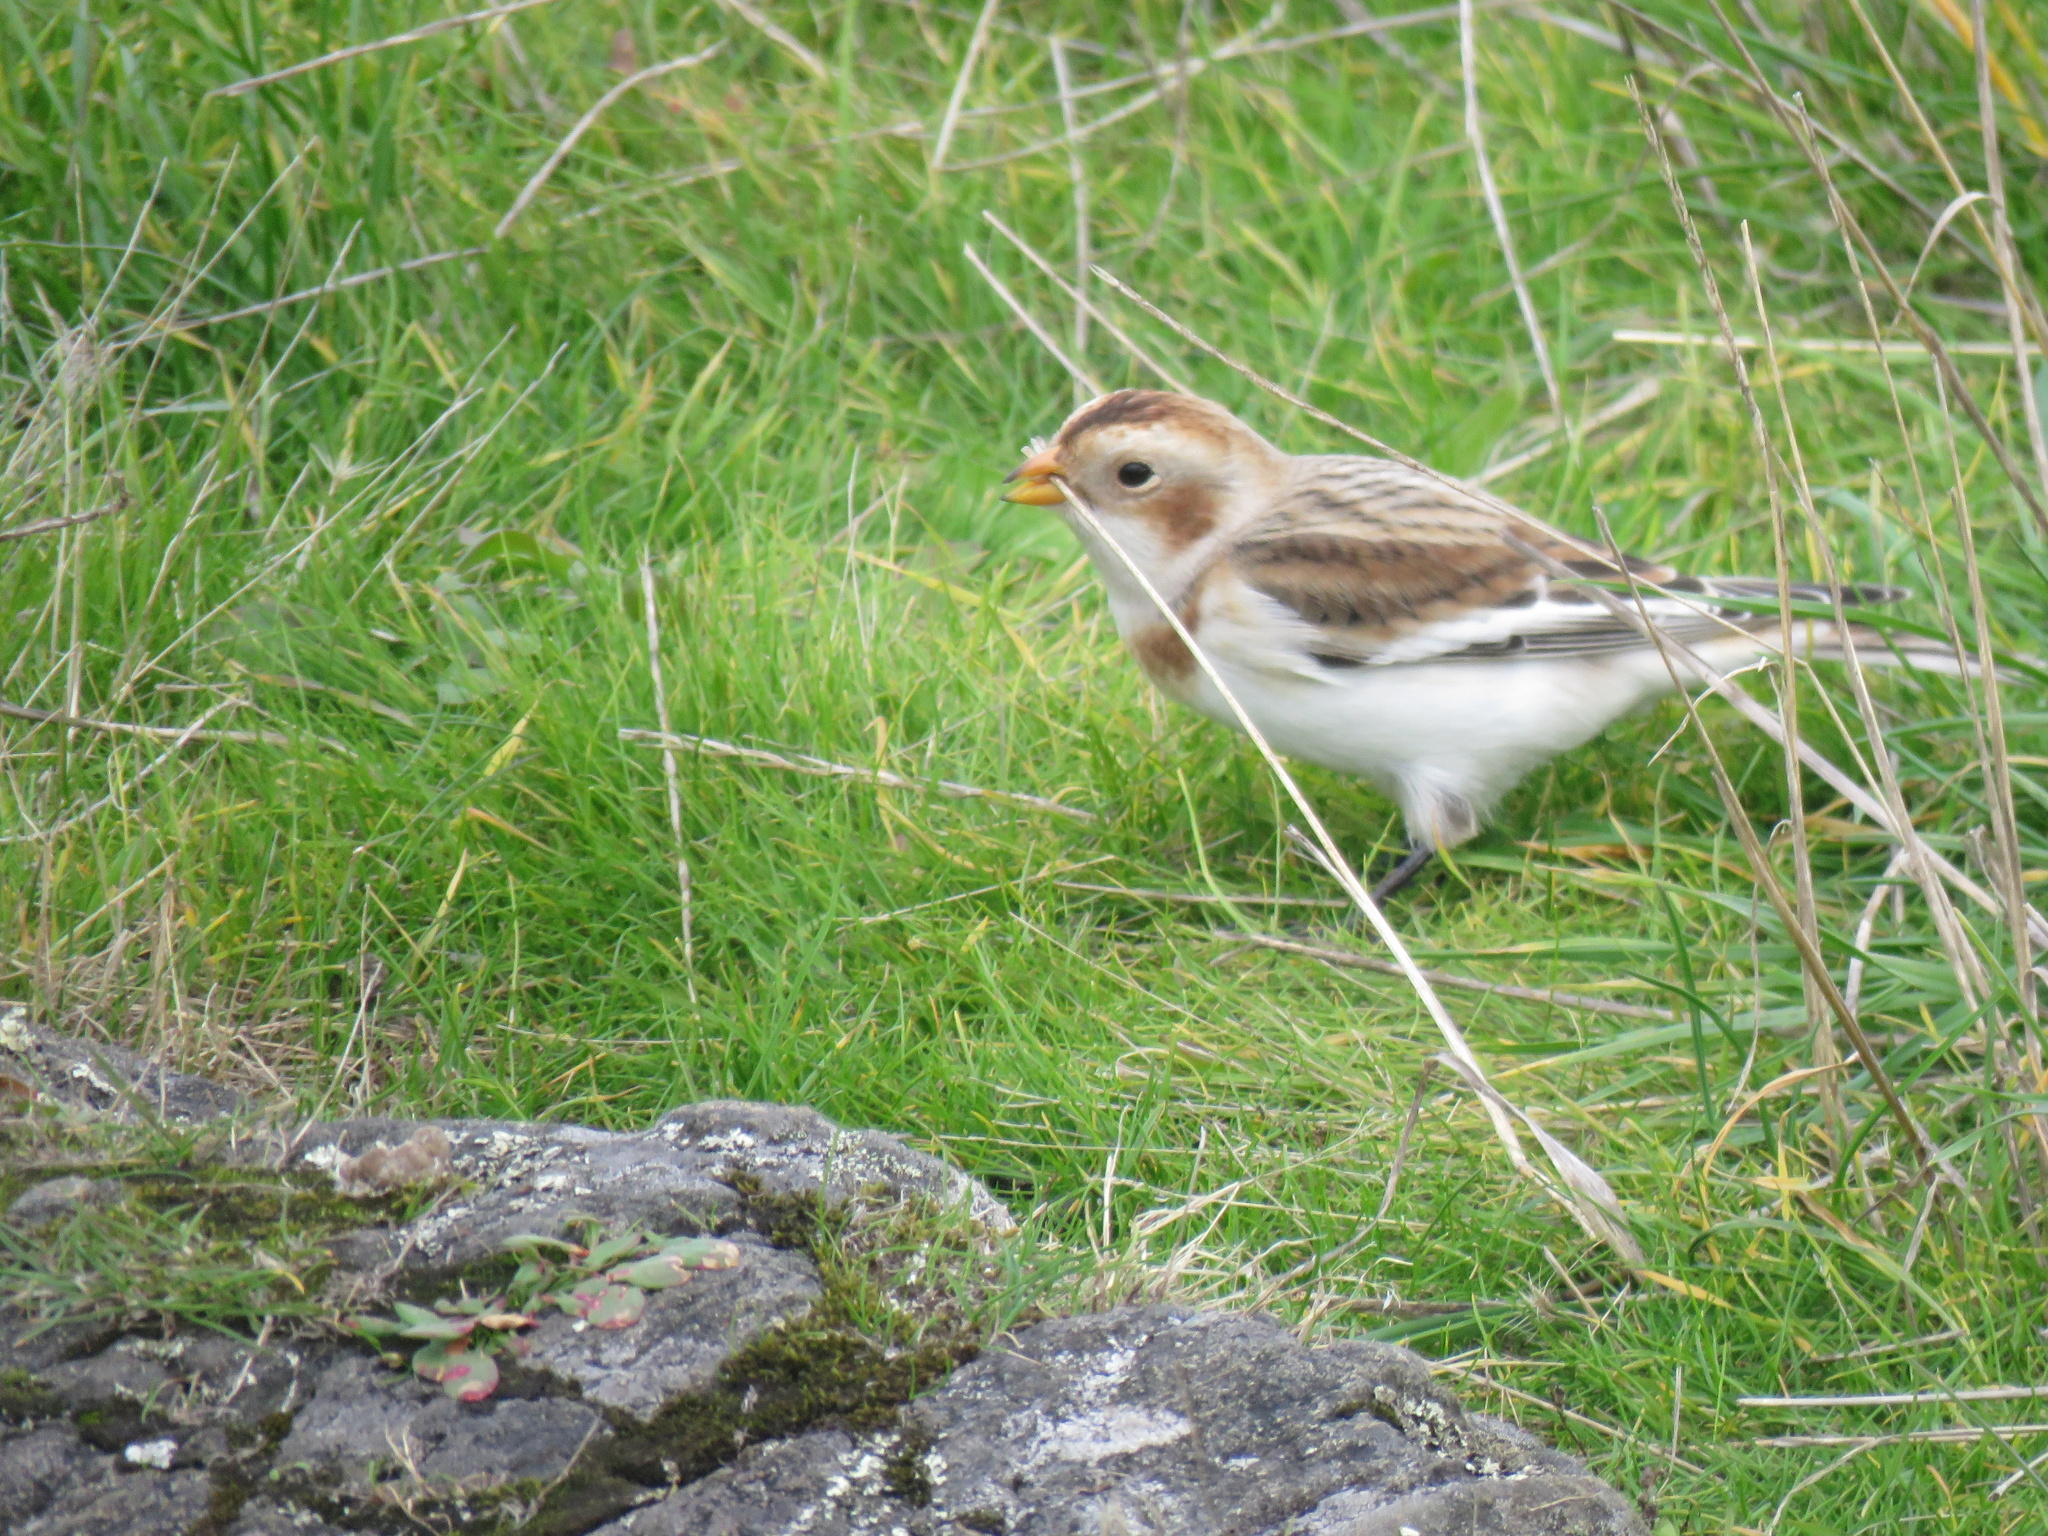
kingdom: Animalia
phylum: Chordata
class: Aves
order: Passeriformes
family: Calcariidae
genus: Plectrophenax
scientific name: Plectrophenax nivalis
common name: Snow bunting
